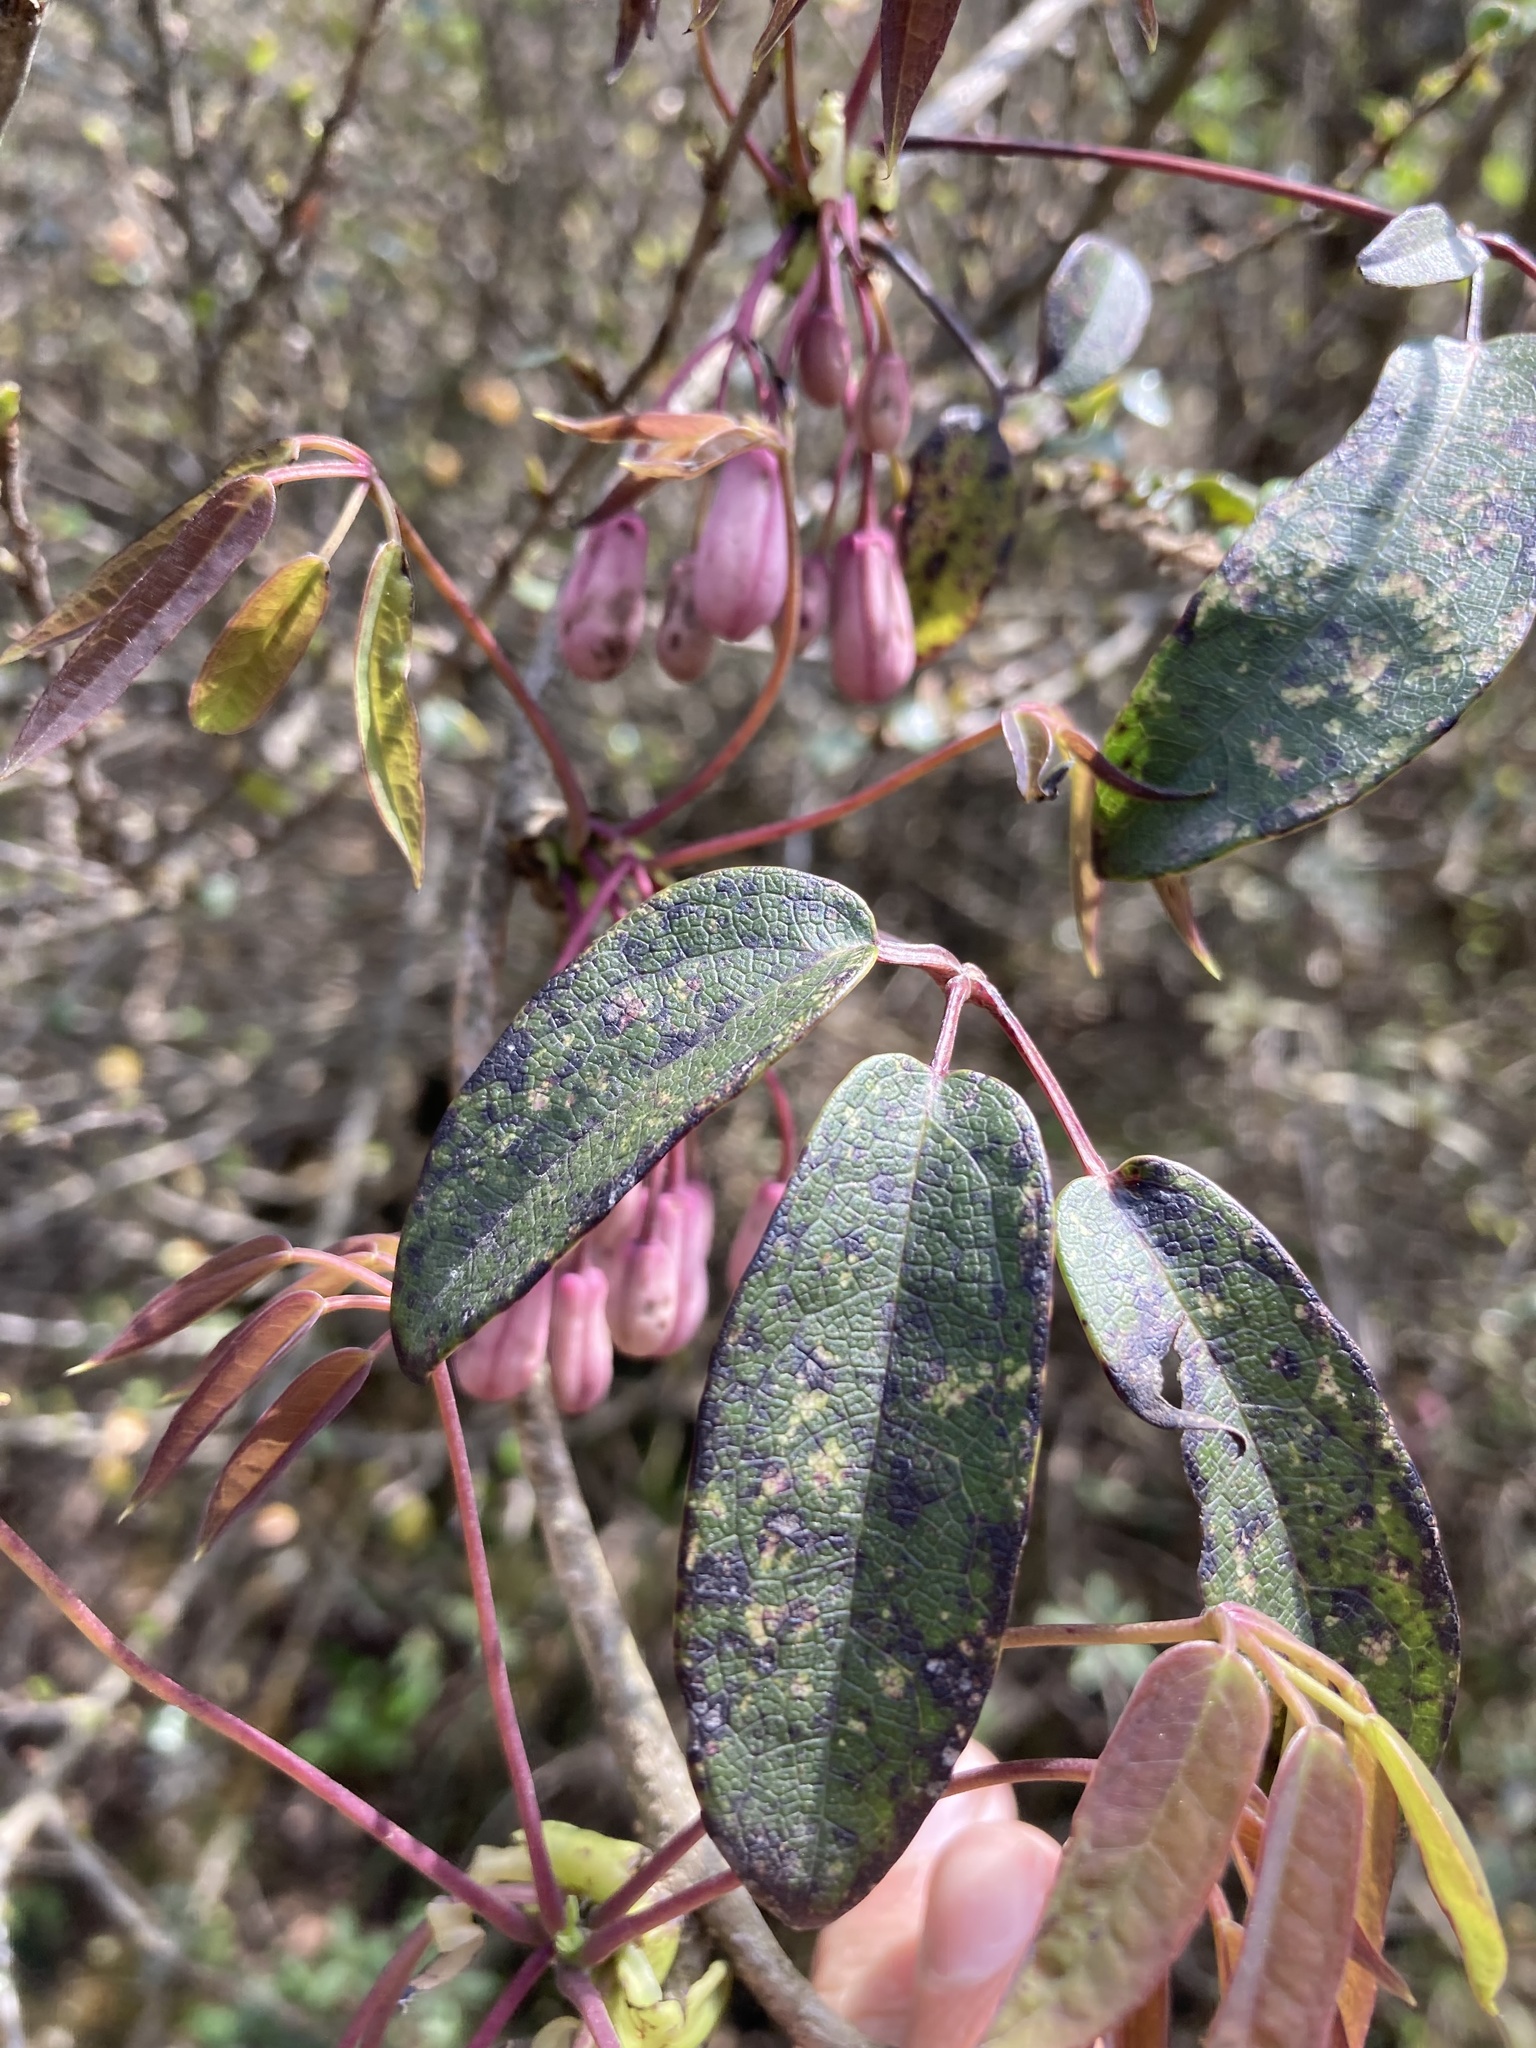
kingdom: Plantae
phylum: Tracheophyta
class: Magnoliopsida
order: Ranunculales
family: Lardizabalaceae
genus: Stauntonia
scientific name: Stauntonia latifolia
